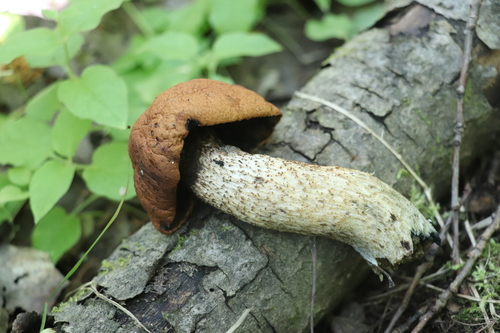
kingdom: Fungi
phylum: Basidiomycota
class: Agaricomycetes
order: Boletales
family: Boletaceae
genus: Leccinum
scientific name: Leccinum versipelle
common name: Orange birch bolete
